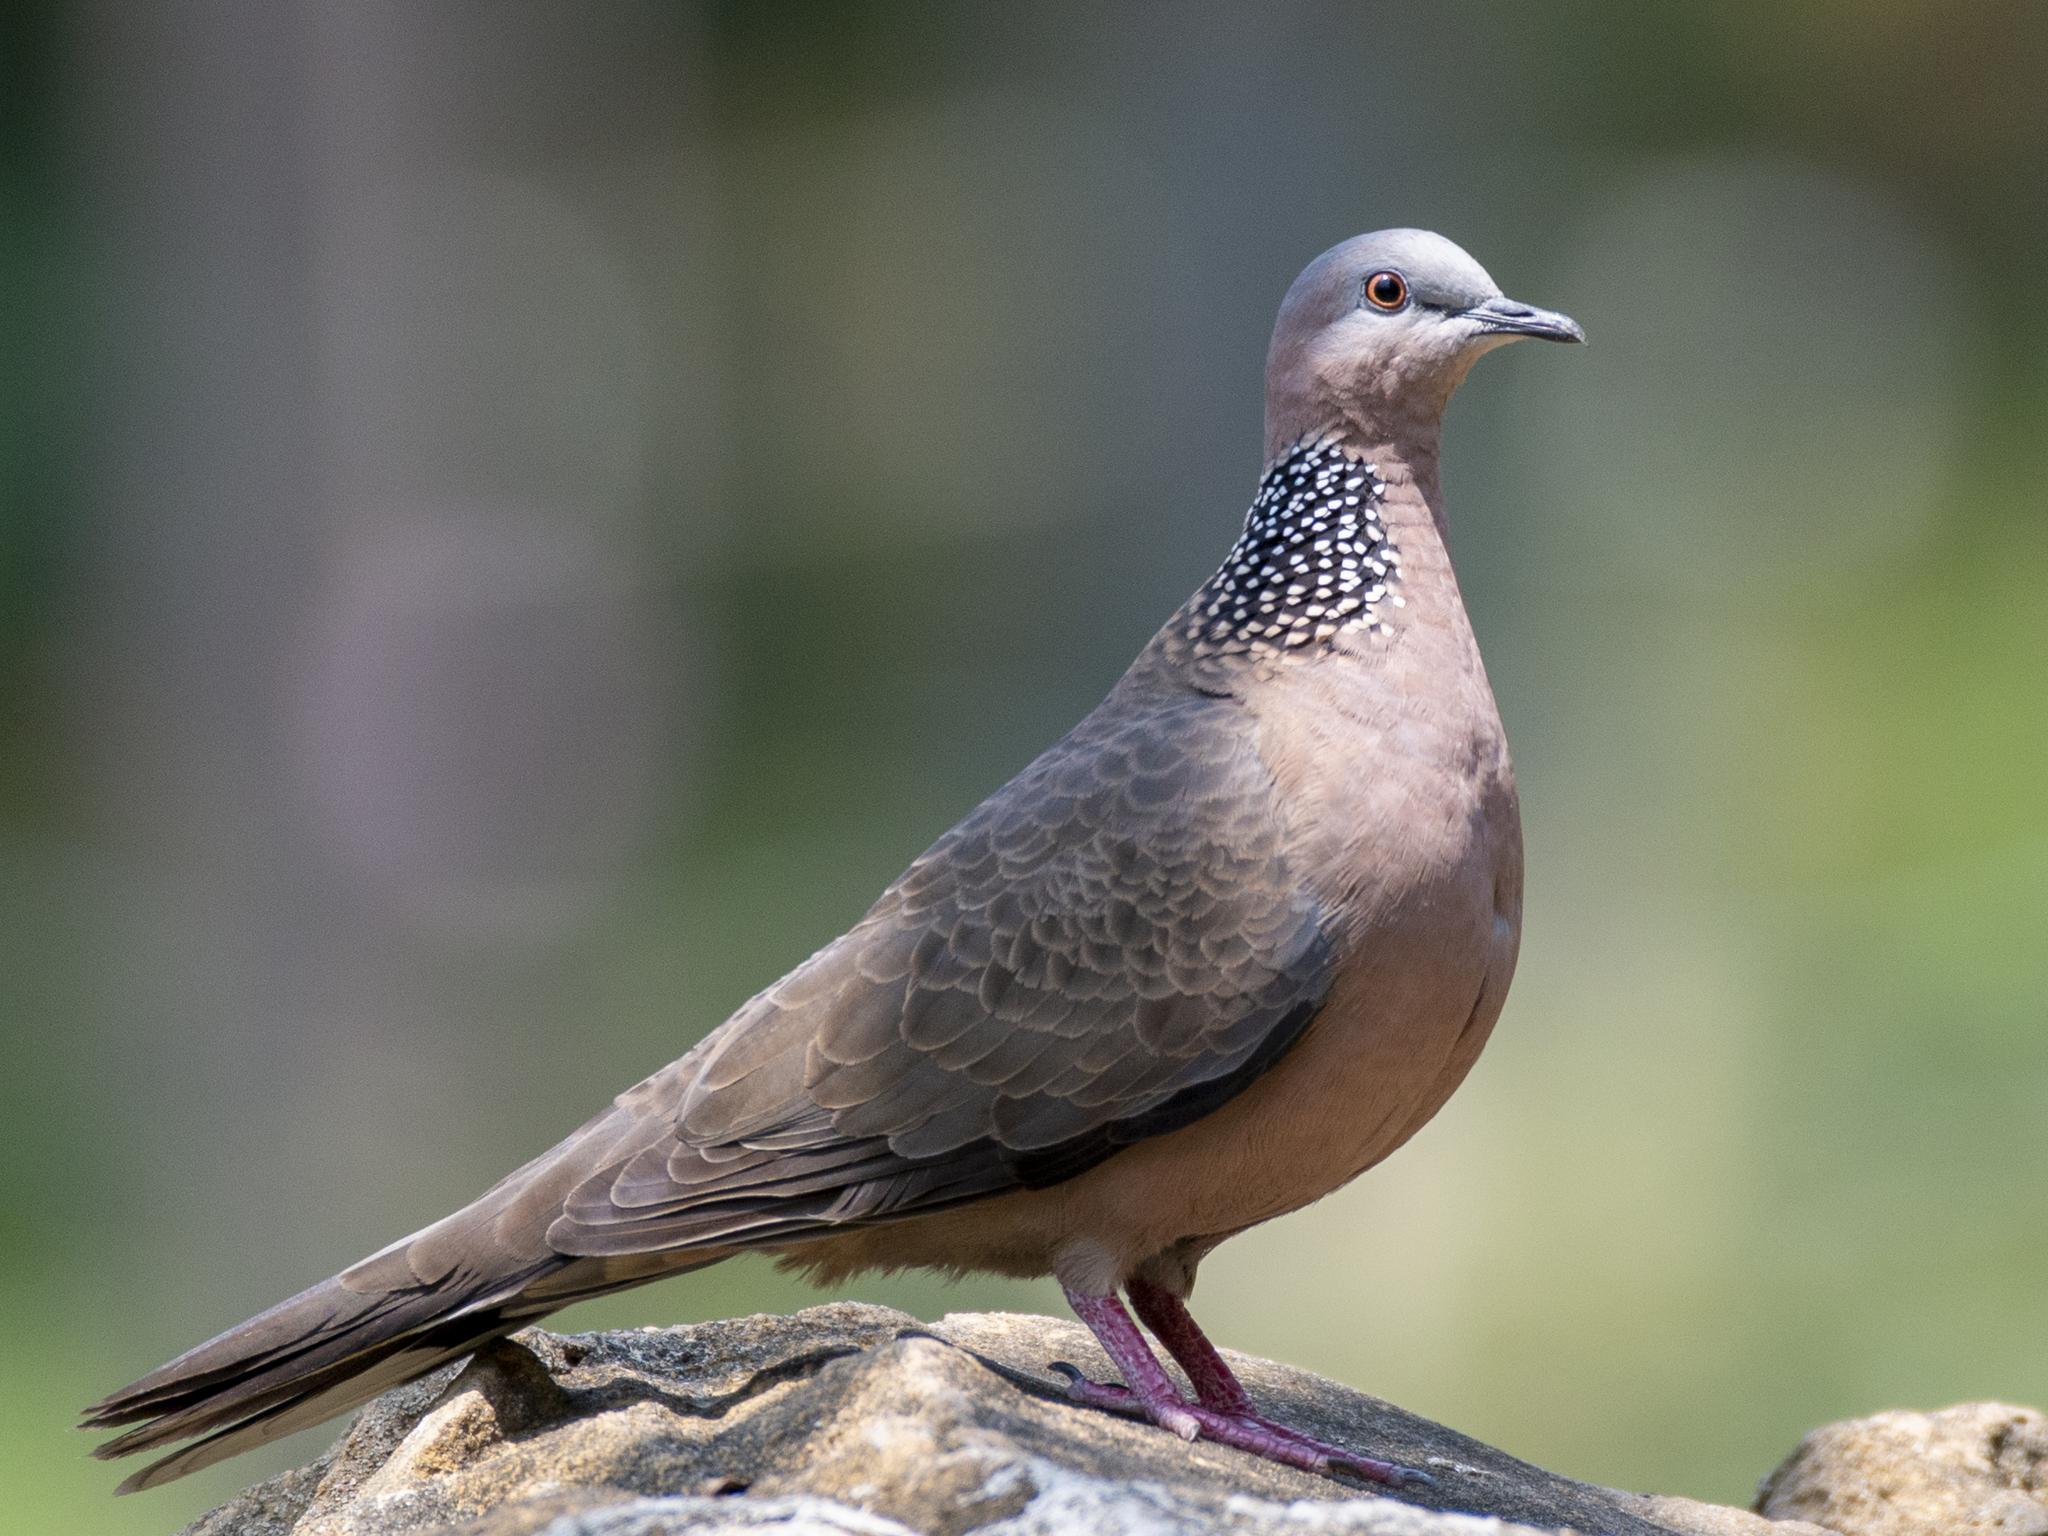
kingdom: Animalia
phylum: Chordata
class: Aves
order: Columbiformes
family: Columbidae
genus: Spilopelia
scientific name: Spilopelia chinensis
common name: Spotted dove
